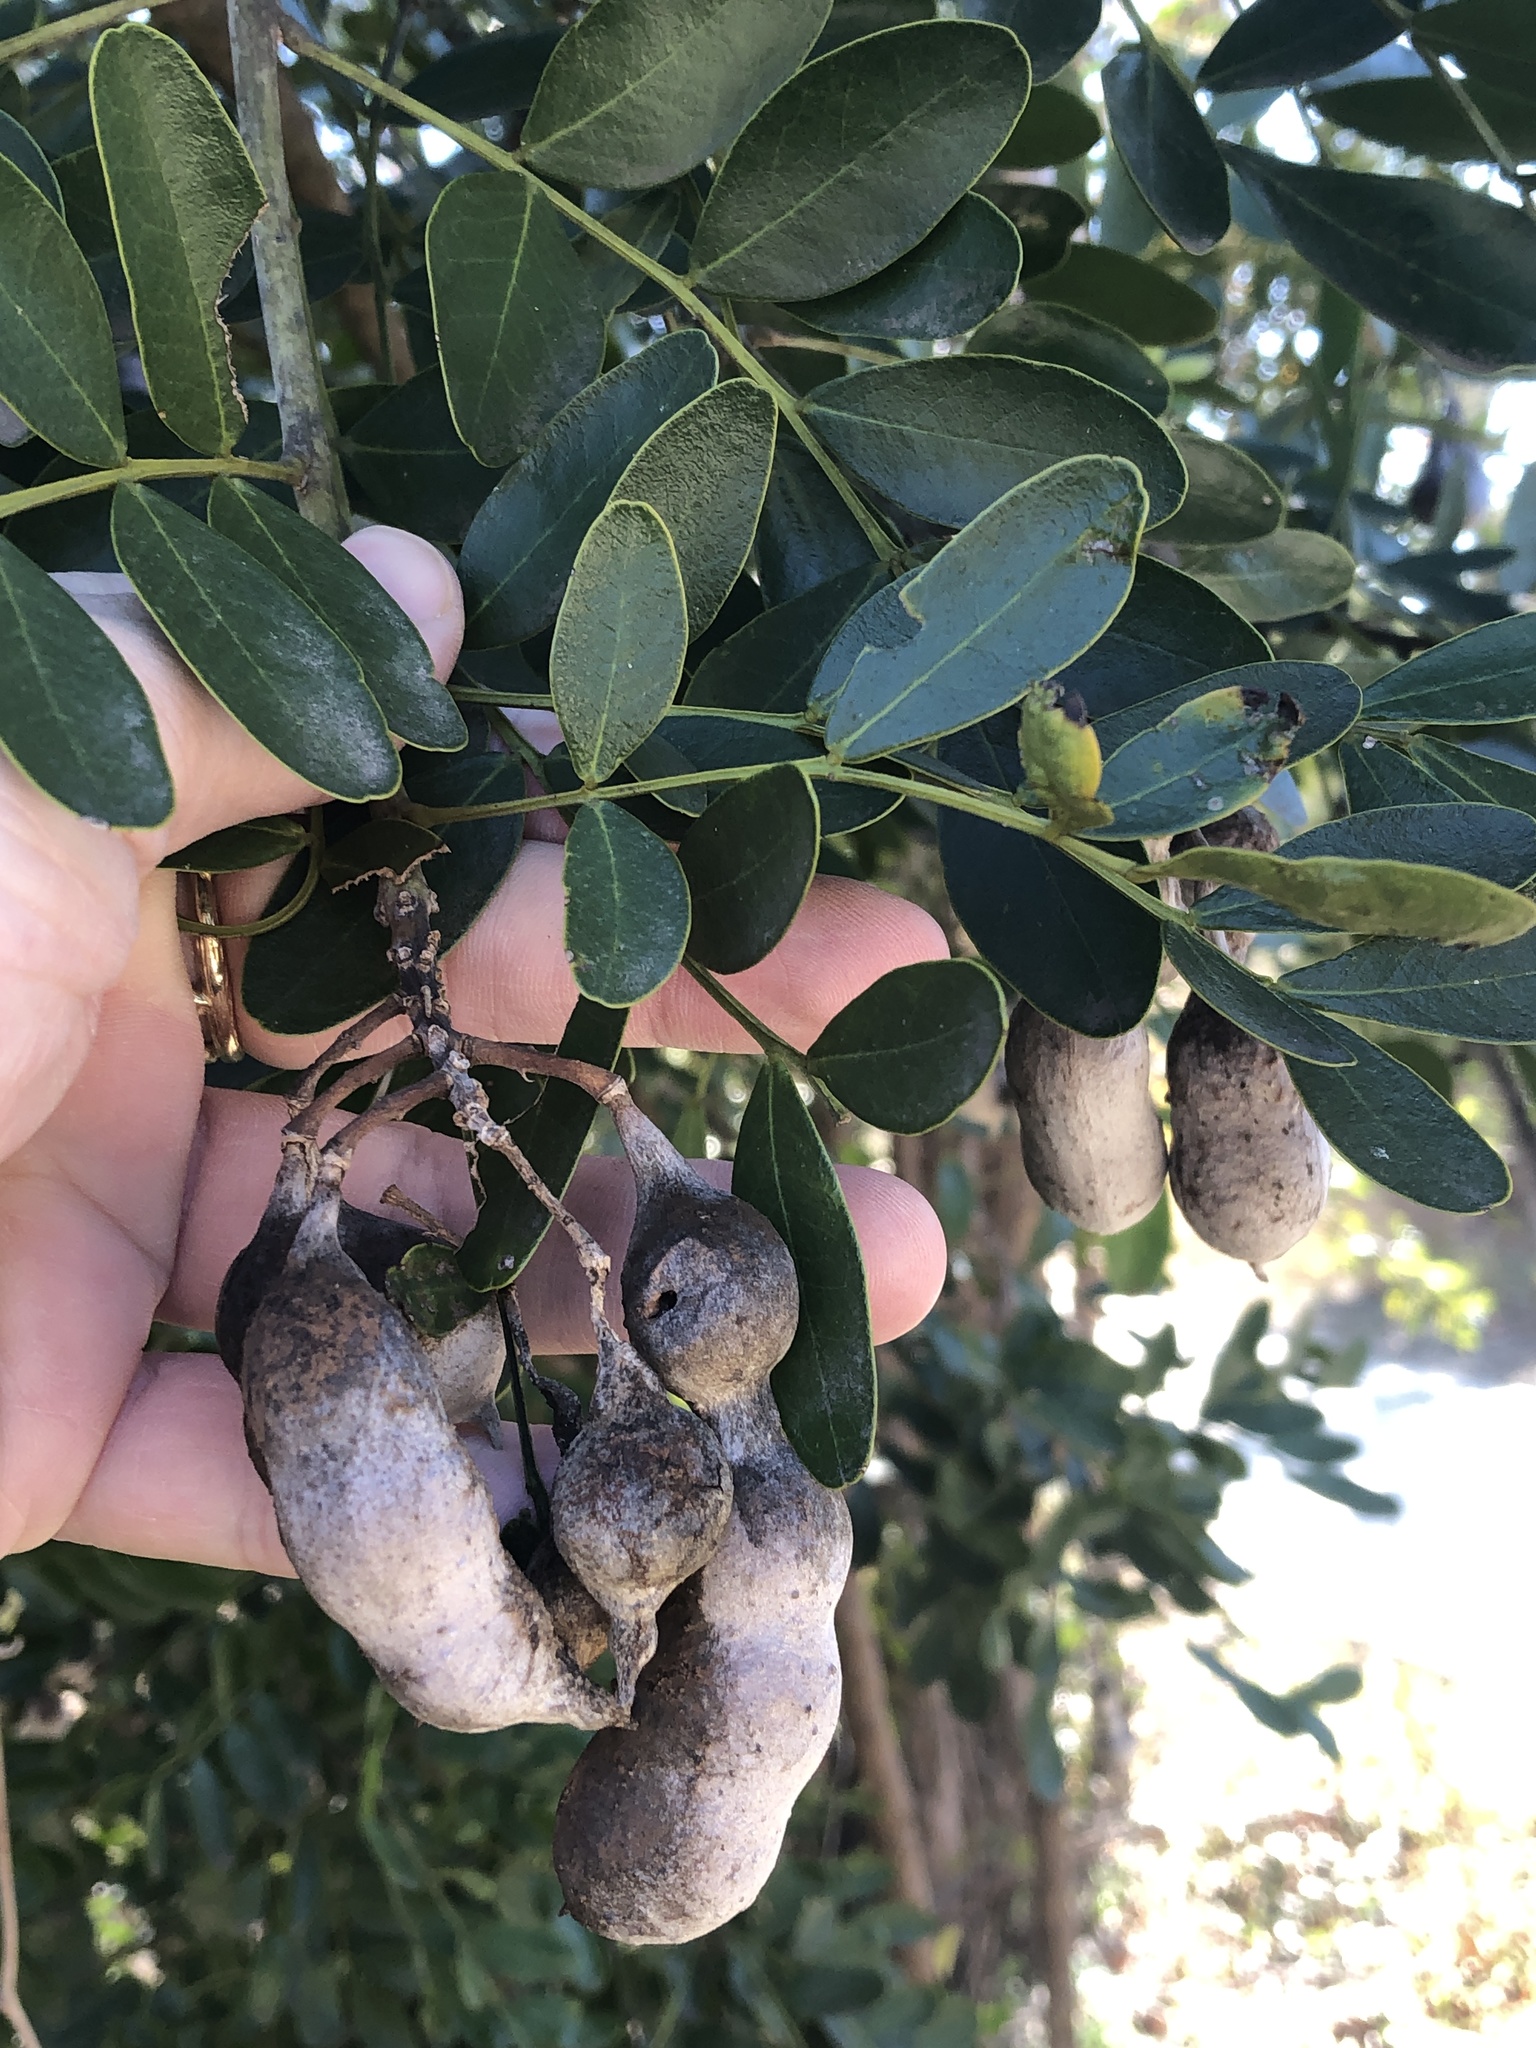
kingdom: Plantae
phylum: Tracheophyta
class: Magnoliopsida
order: Fabales
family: Fabaceae
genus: Dermatophyllum
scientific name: Dermatophyllum secundiflorum
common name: Texas-mountain-laurel
